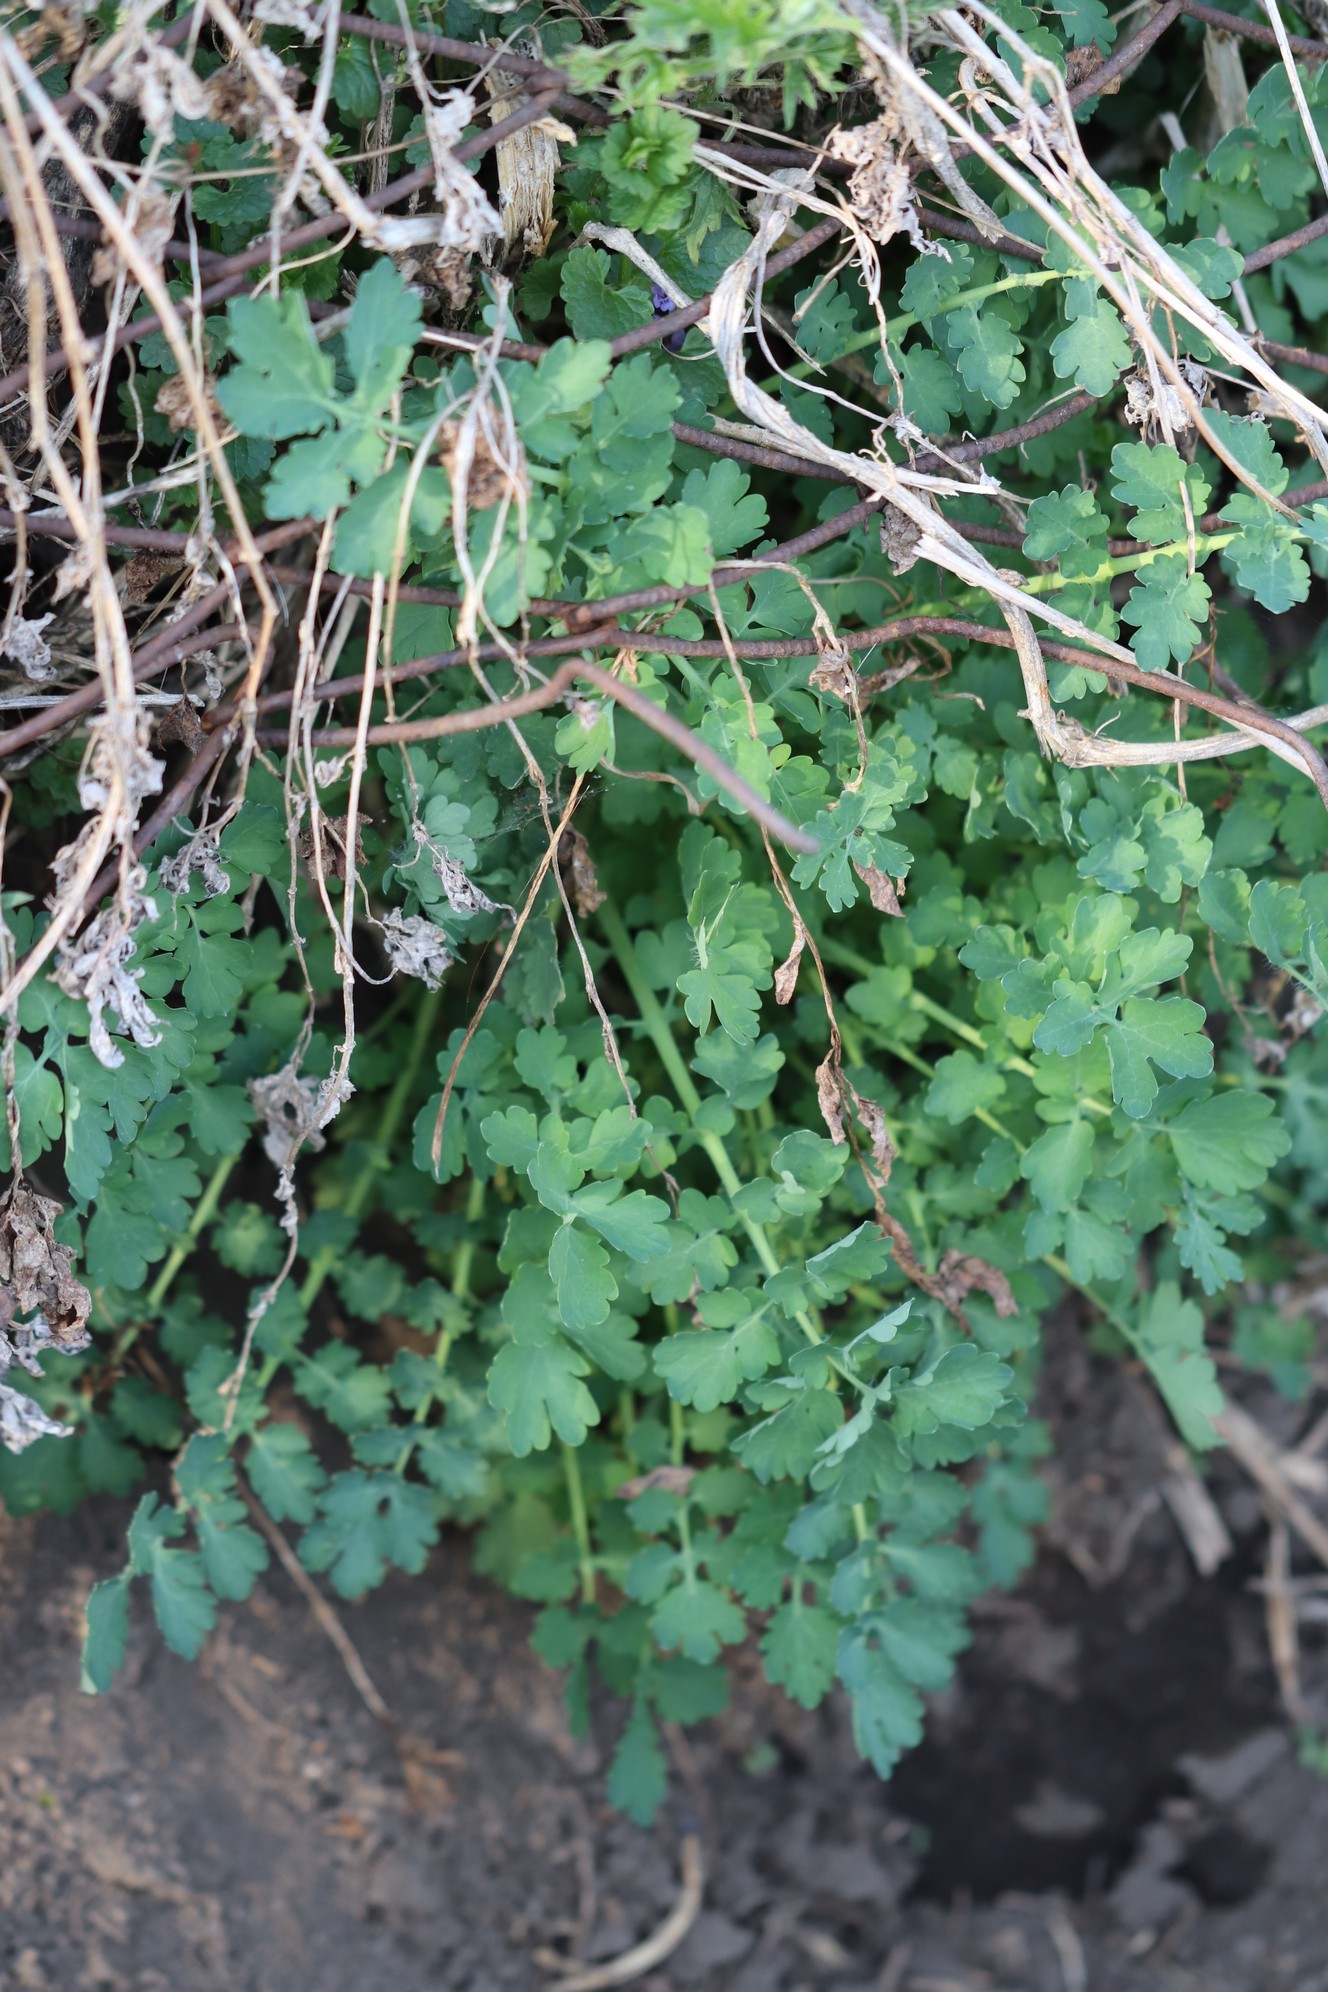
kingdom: Plantae
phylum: Tracheophyta
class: Magnoliopsida
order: Ranunculales
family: Papaveraceae
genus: Chelidonium
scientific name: Chelidonium majus
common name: Greater celandine
